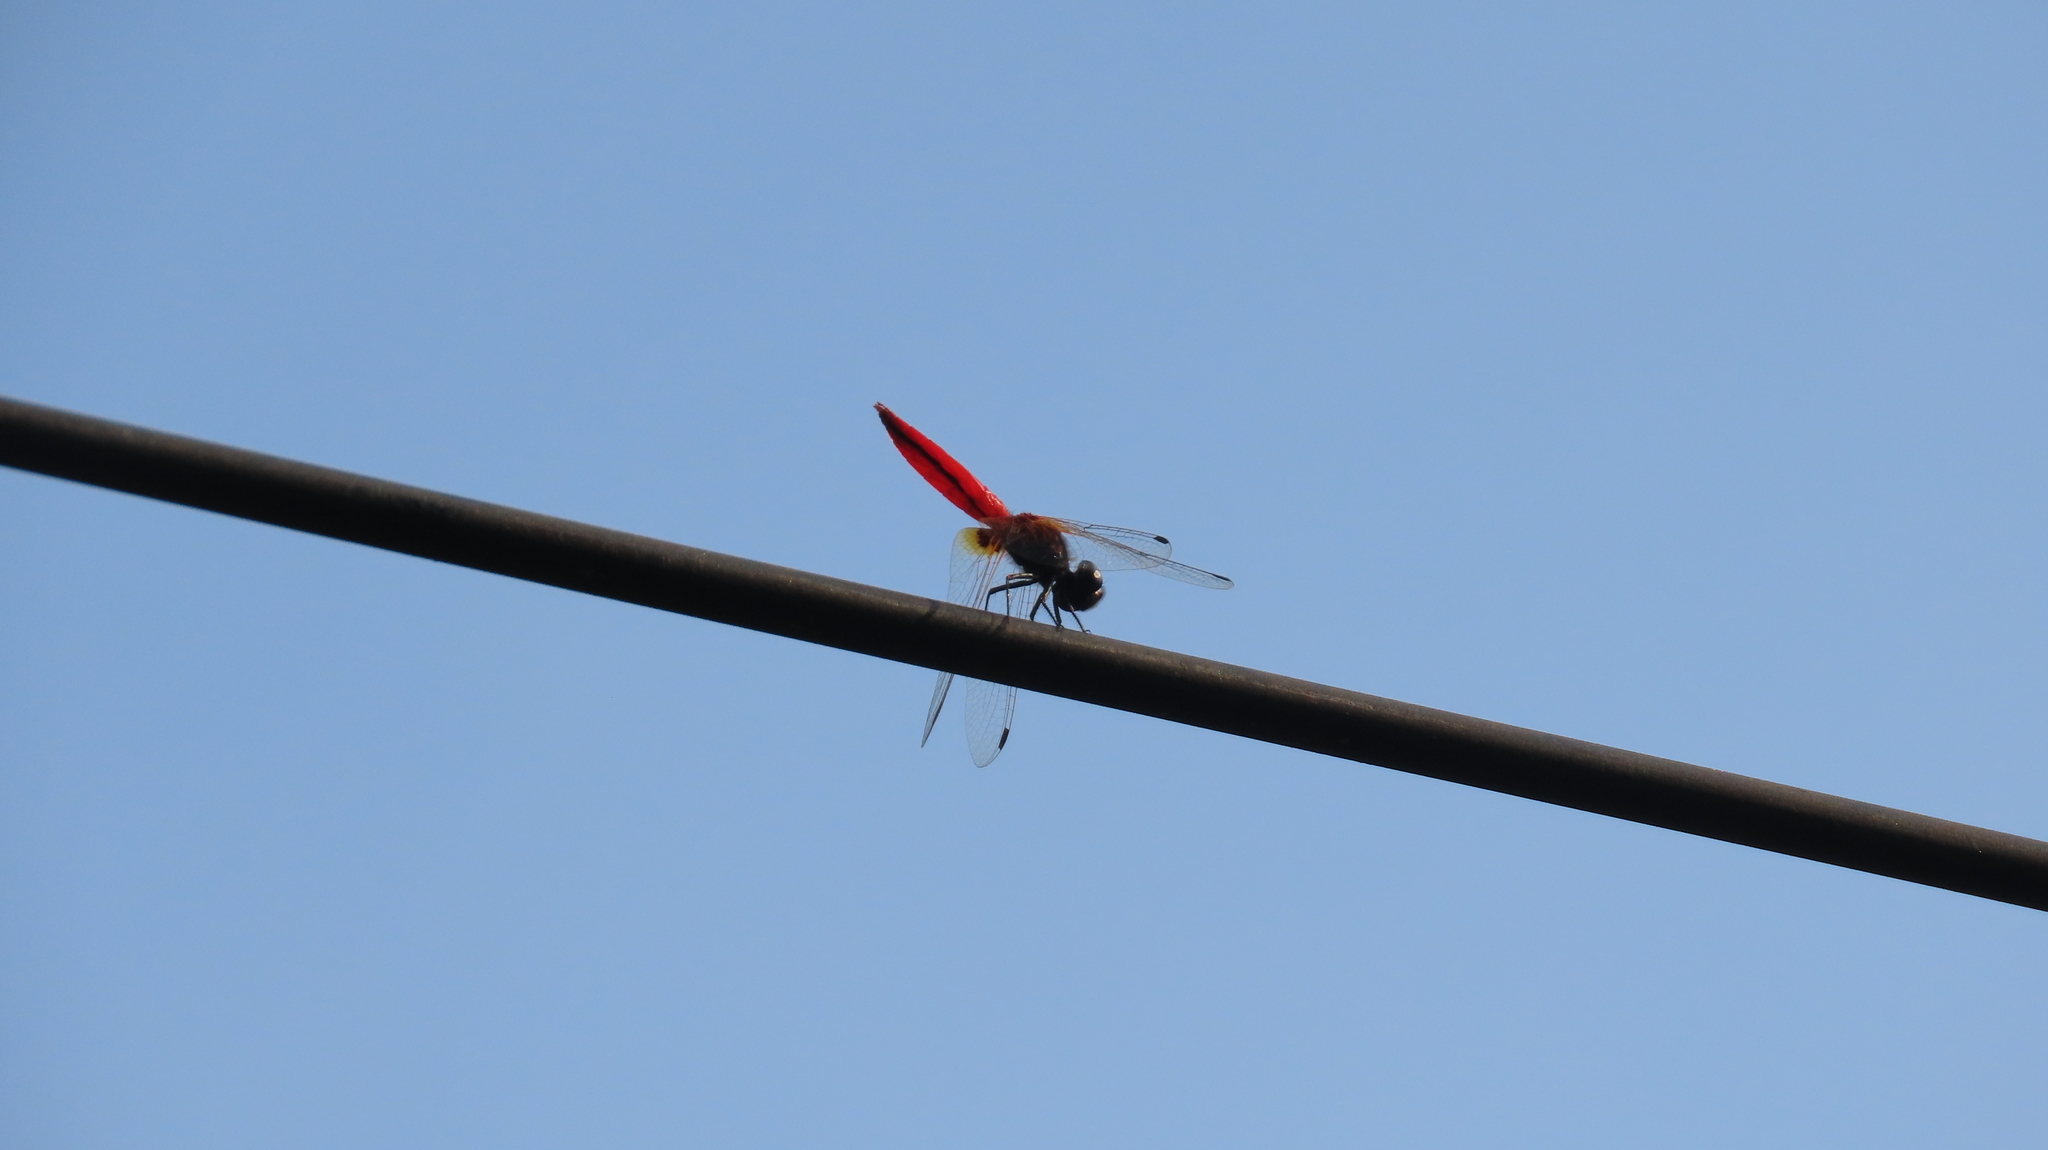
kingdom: Animalia
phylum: Arthropoda
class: Insecta
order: Odonata
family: Libellulidae
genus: Aethriamanta
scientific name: Aethriamanta brevipennis
